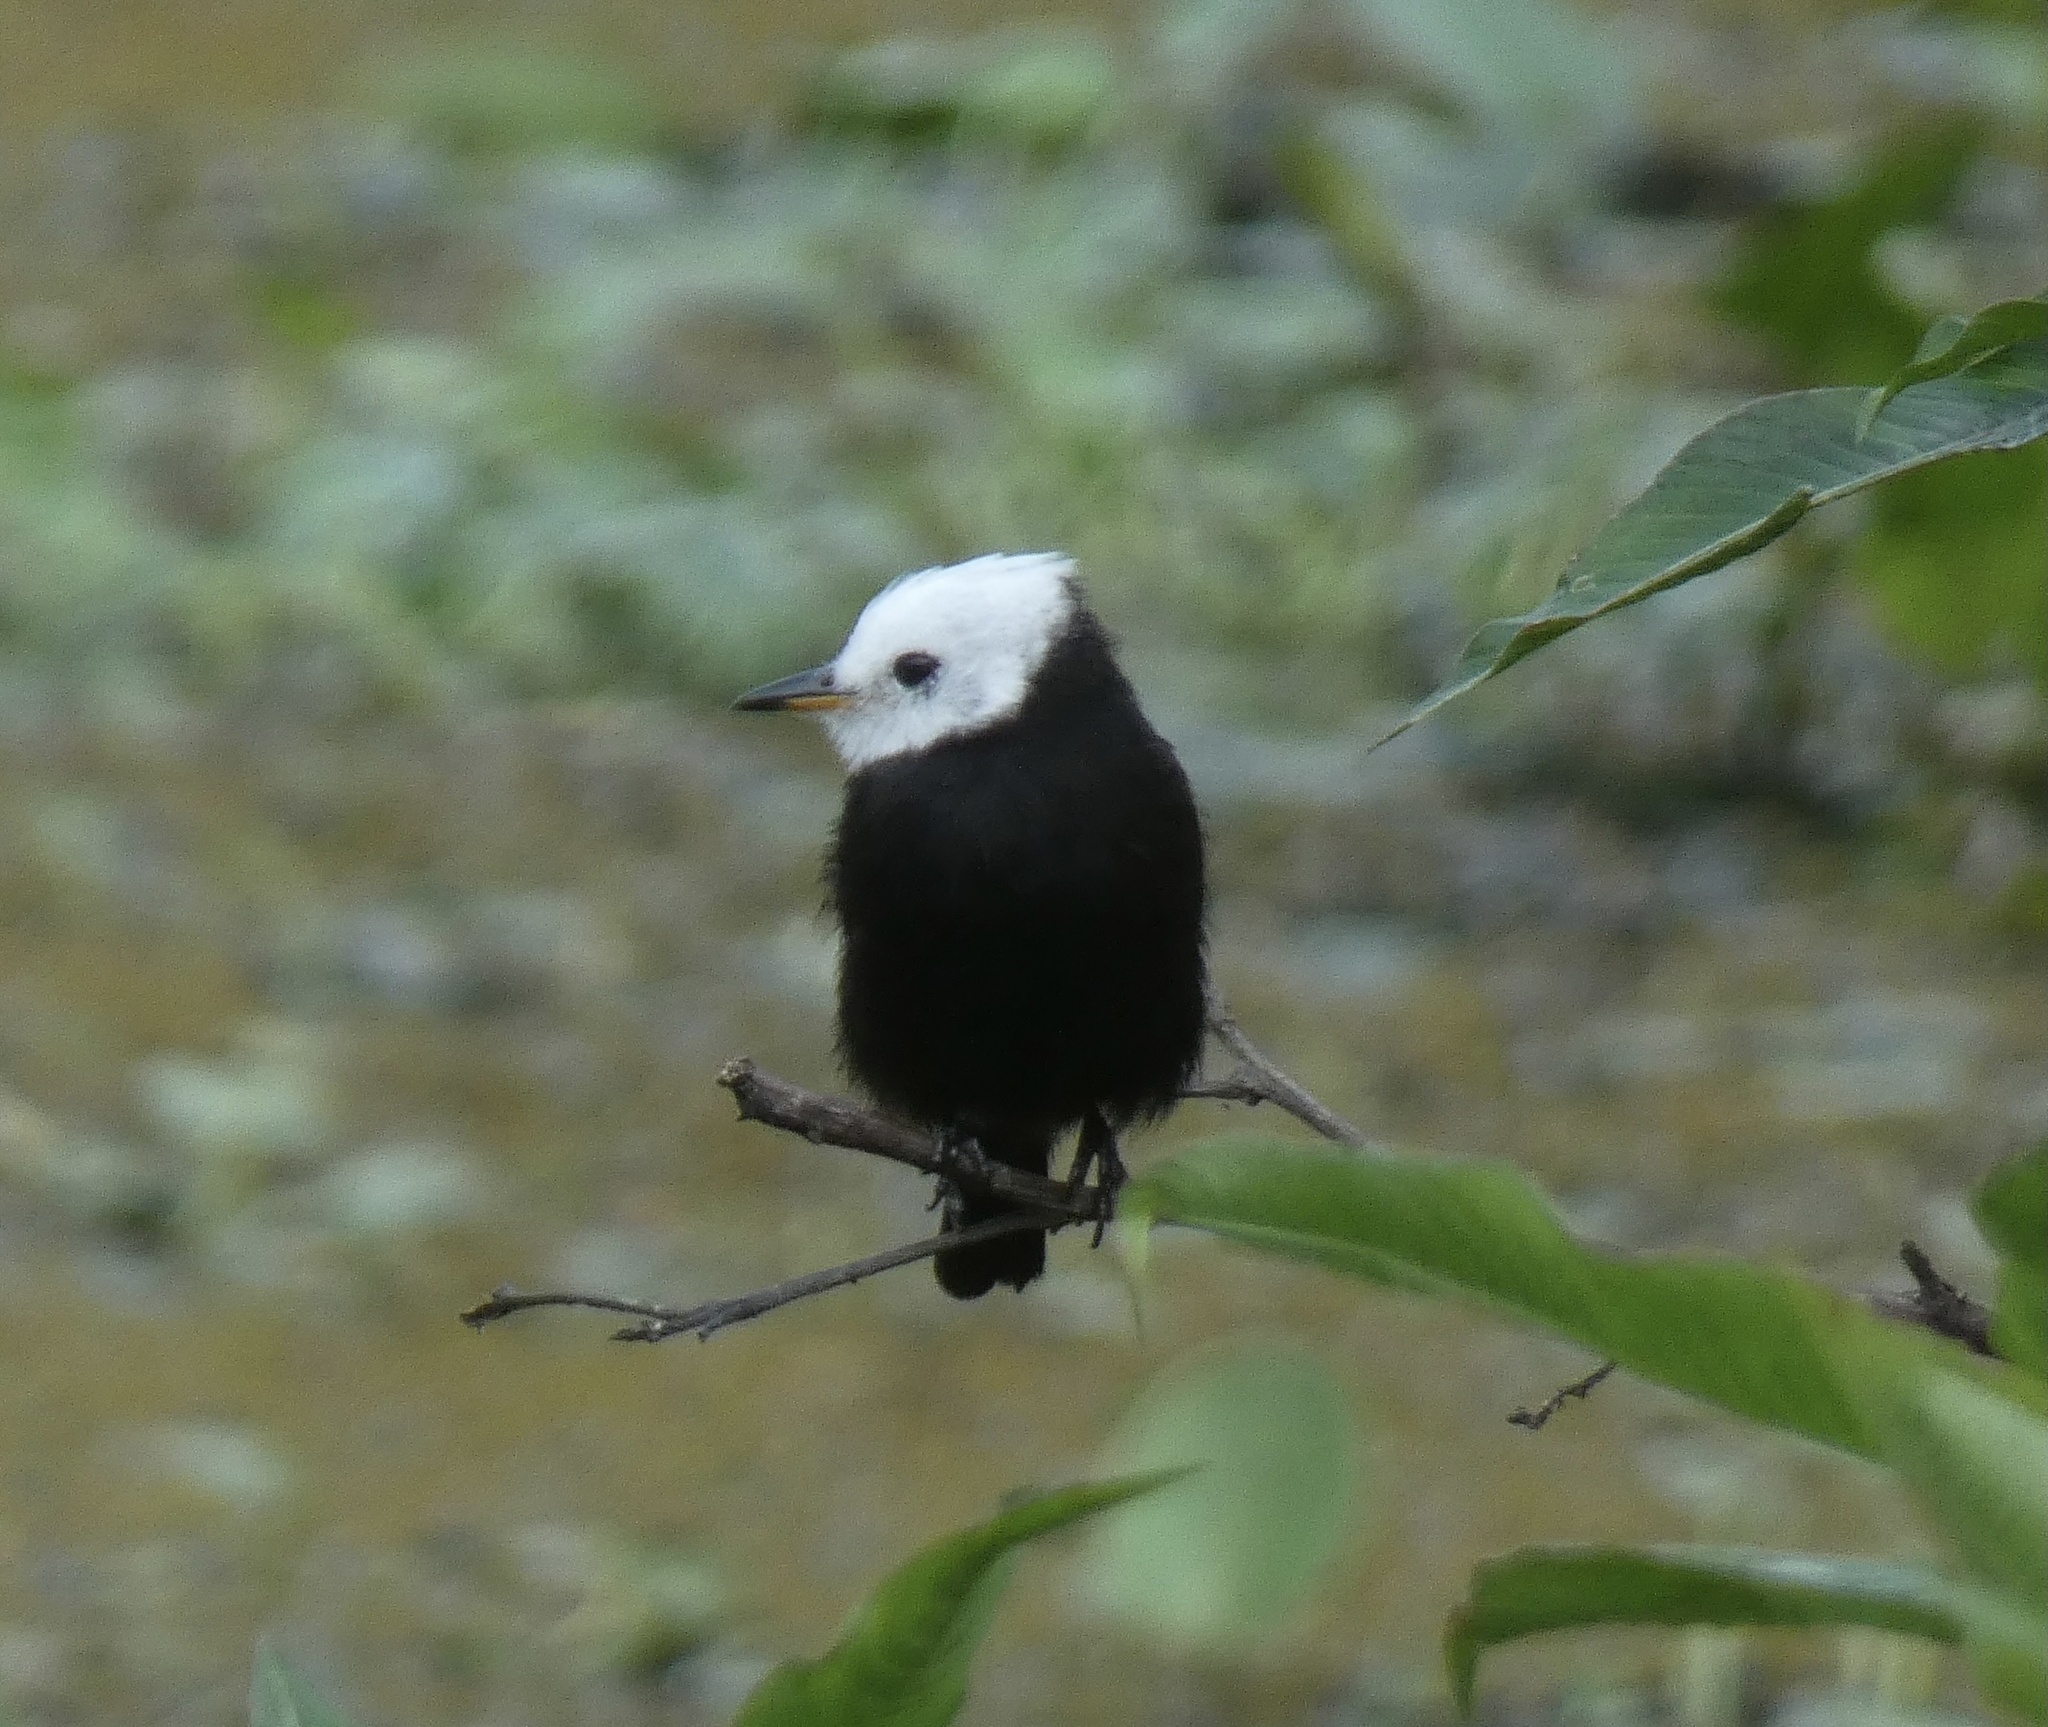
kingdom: Animalia
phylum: Chordata
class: Aves
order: Passeriformes
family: Tyrannidae
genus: Arundinicola
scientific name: Arundinicola leucocephala
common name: White-headed marsh tyrant
